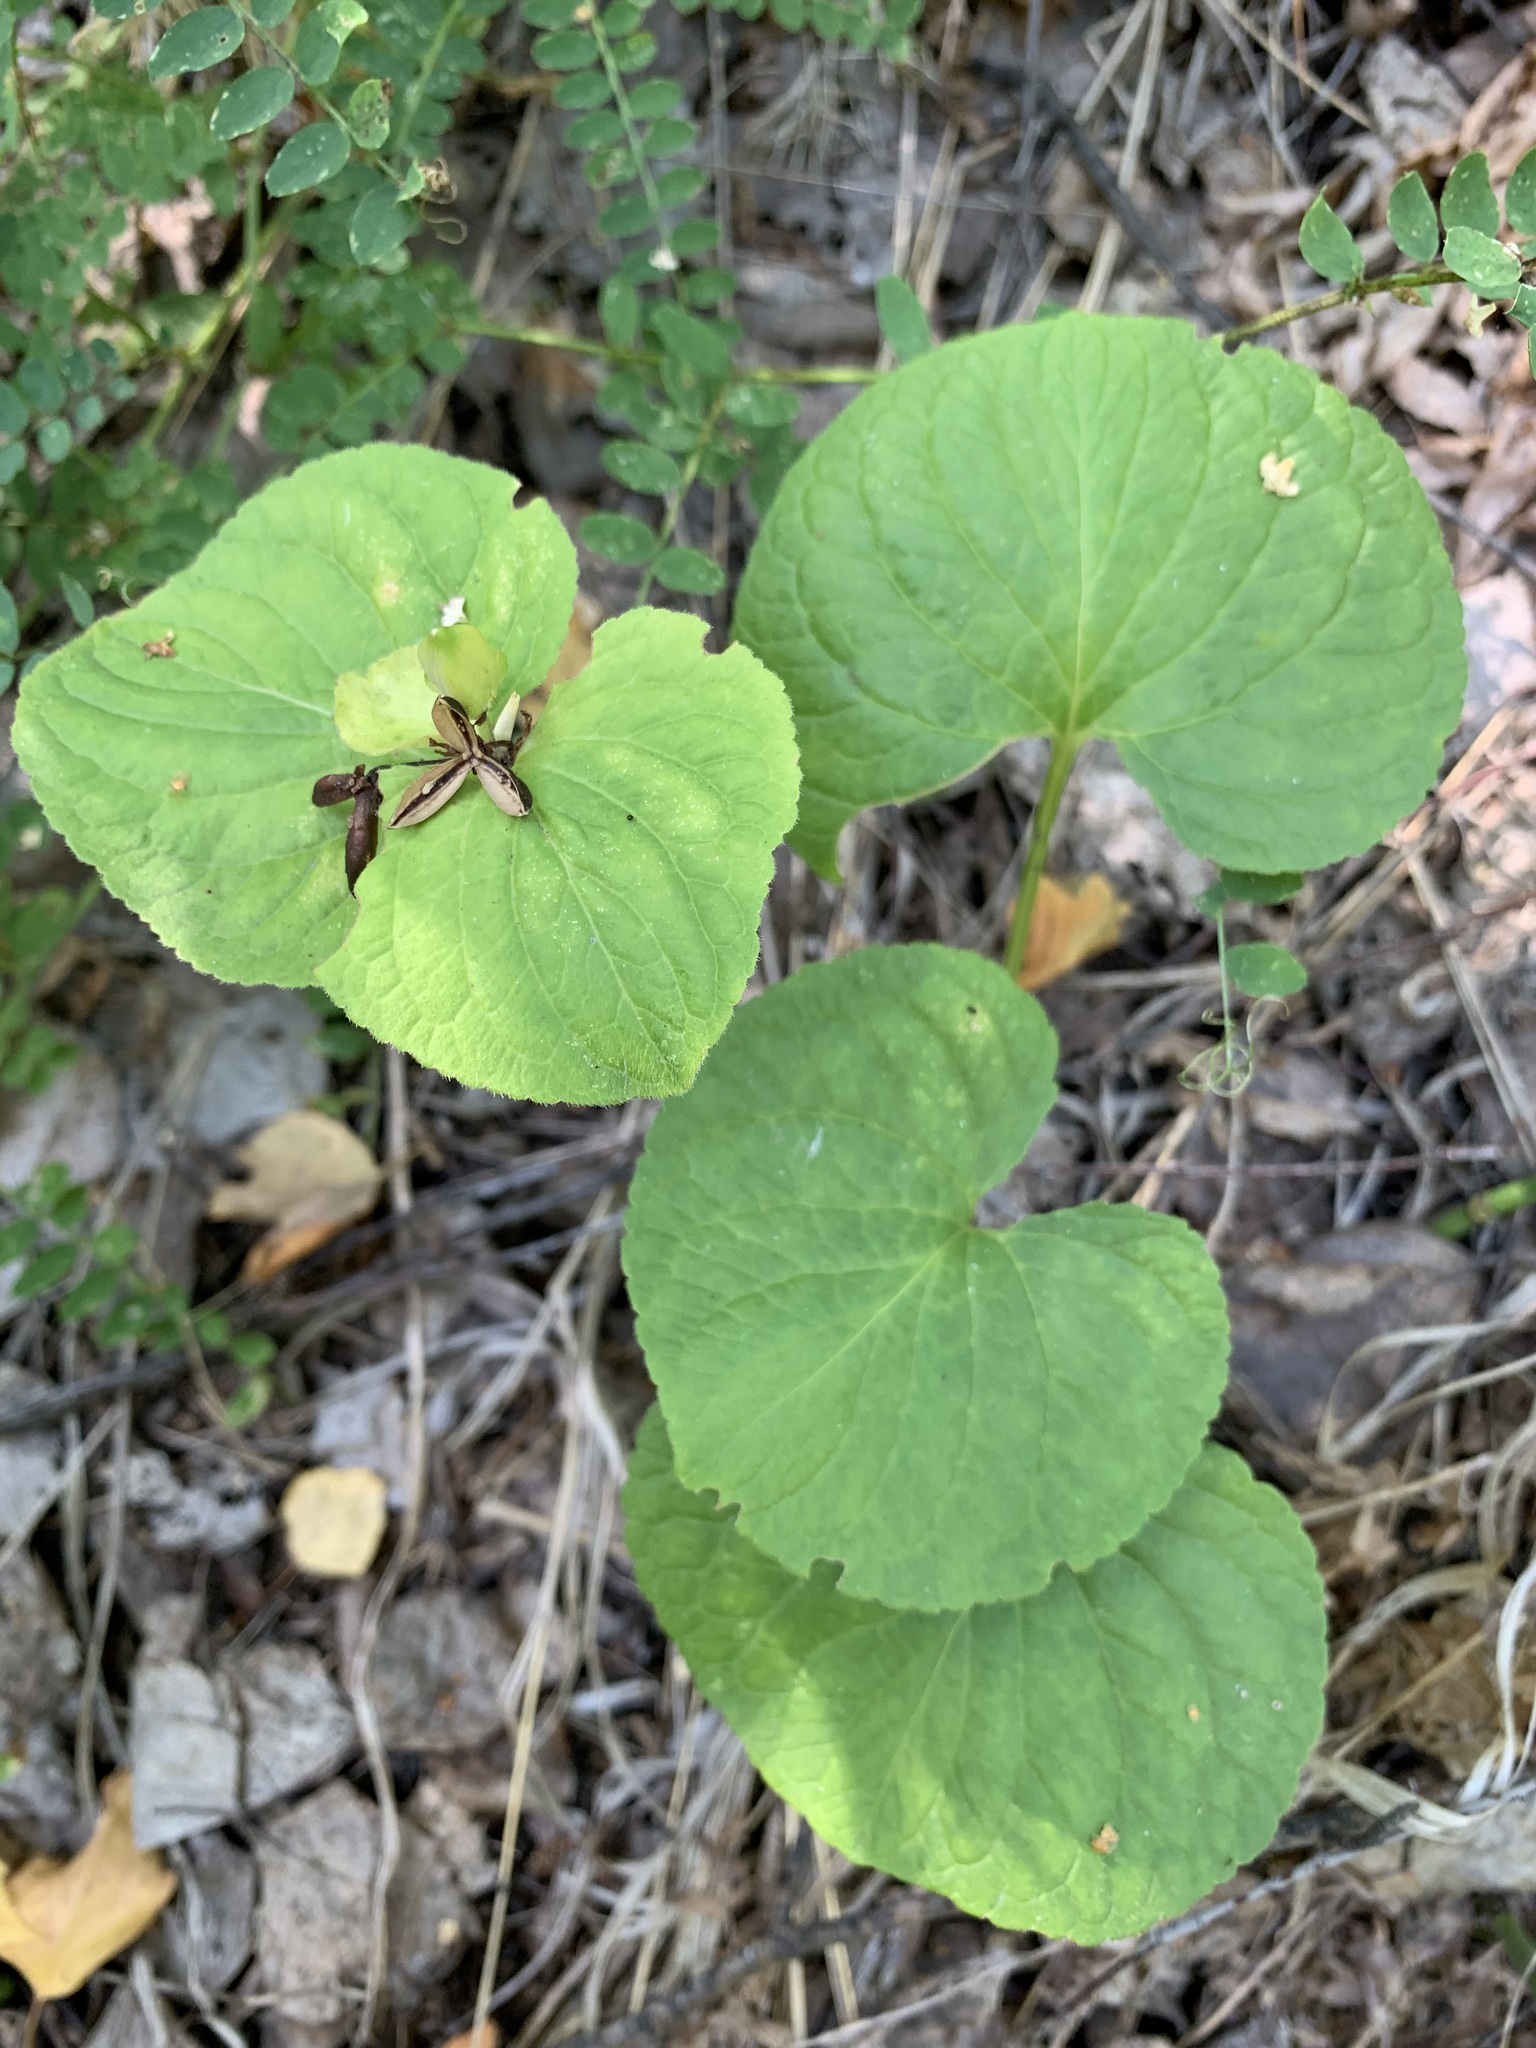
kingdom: Plantae
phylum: Tracheophyta
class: Magnoliopsida
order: Malpighiales
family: Violaceae
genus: Viola
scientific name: Viola mirabilis
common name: Wonder violet
